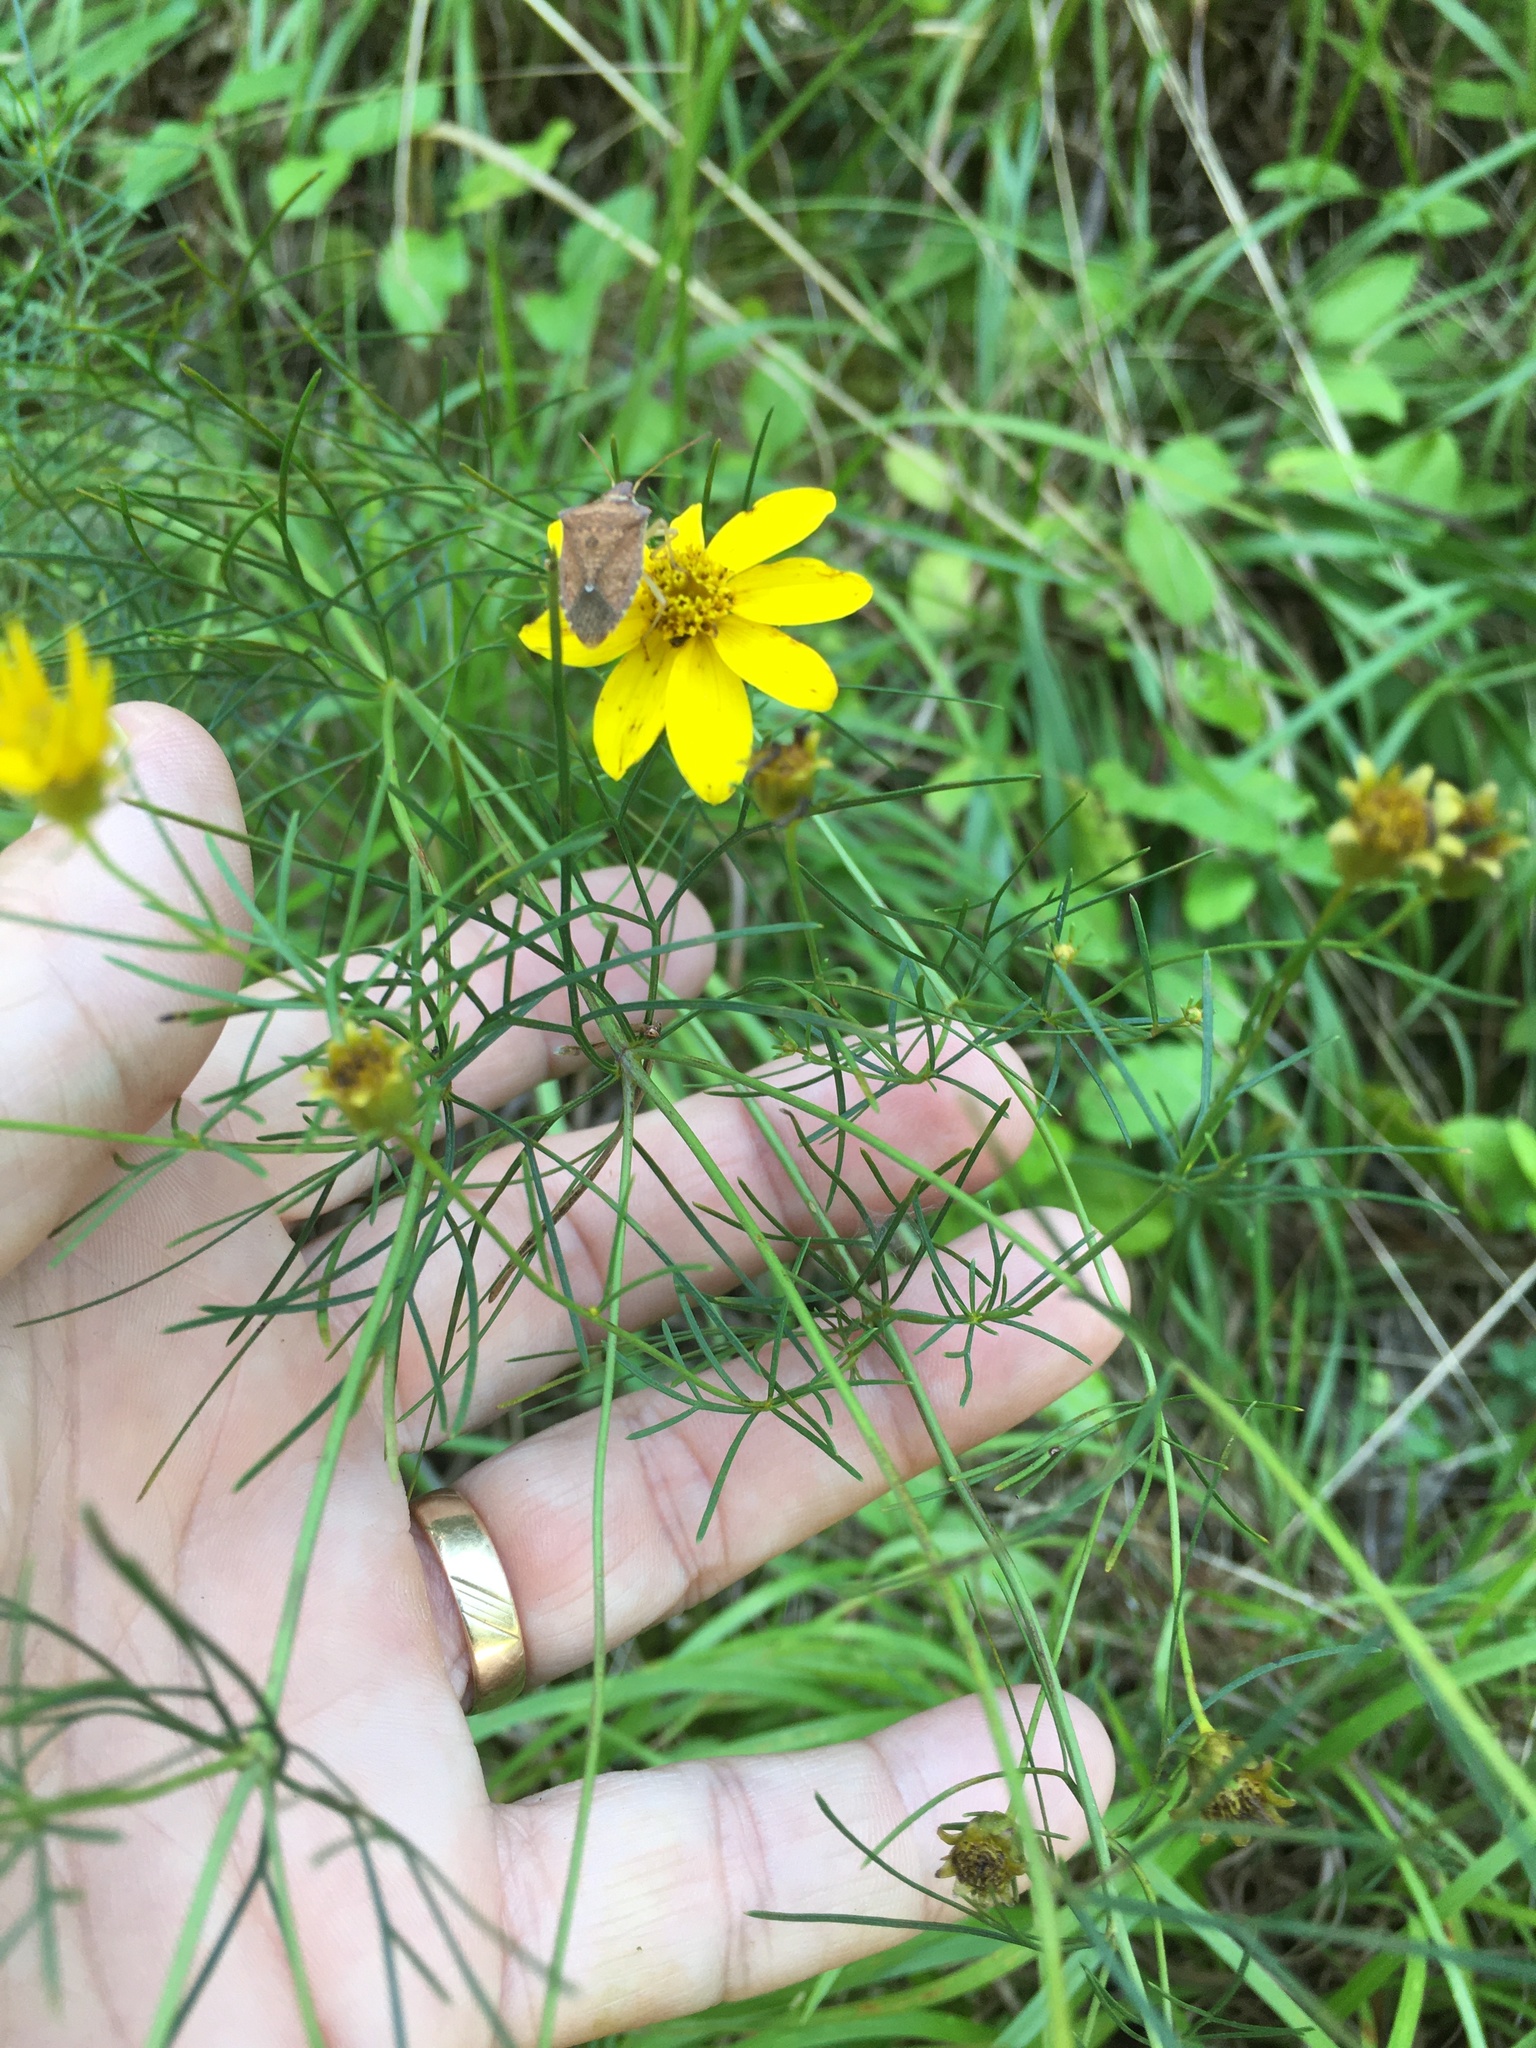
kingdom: Plantae
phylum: Tracheophyta
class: Magnoliopsida
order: Asterales
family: Asteraceae
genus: Coreopsis
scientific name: Coreopsis verticillata
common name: Whorled tickseed
